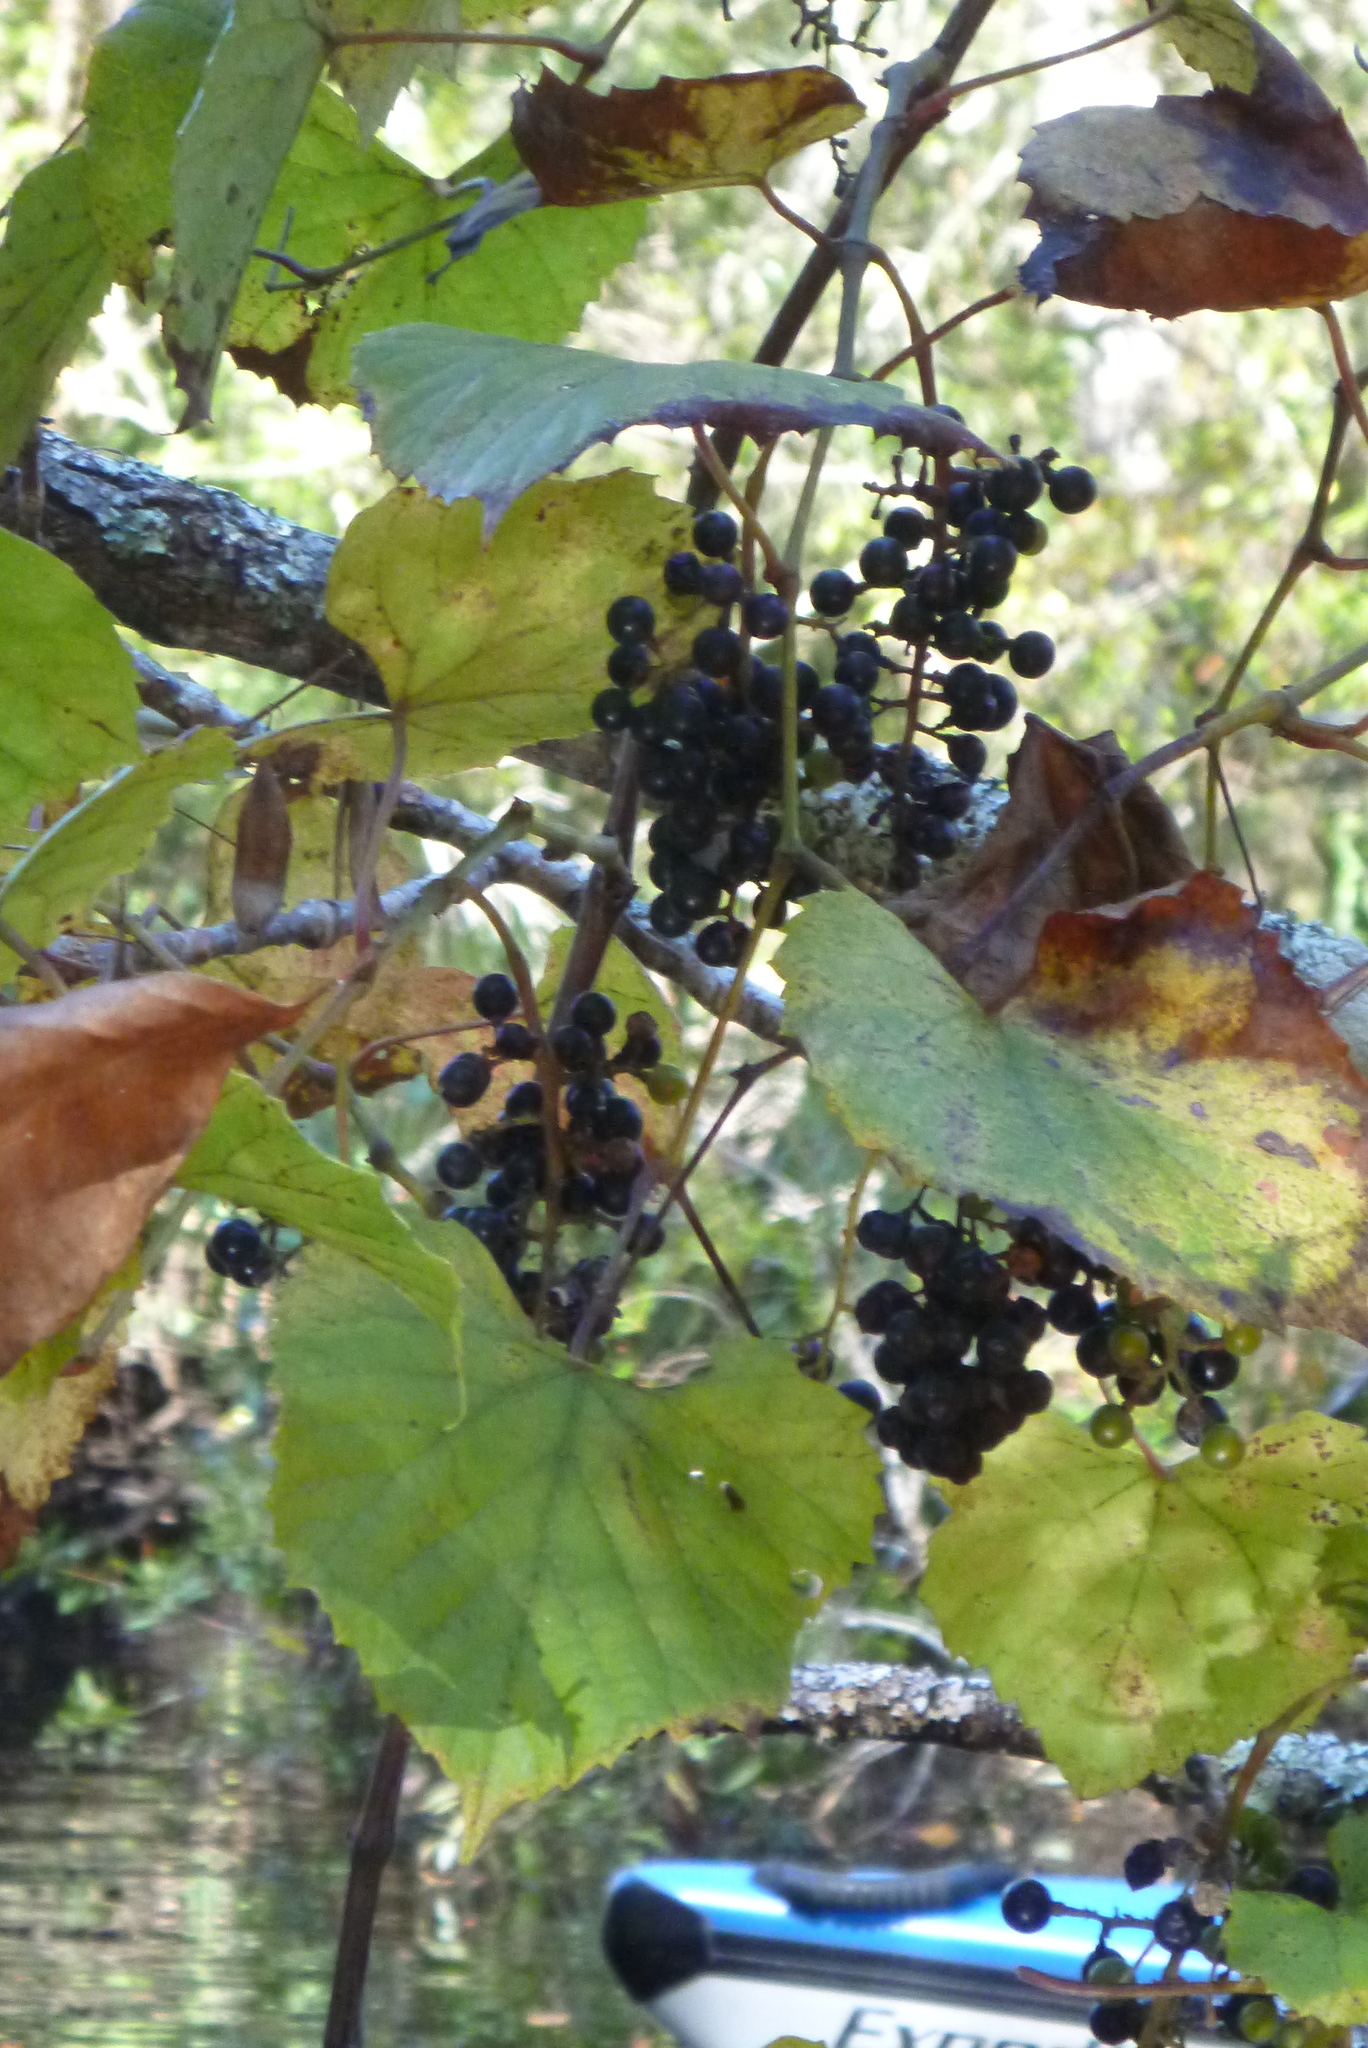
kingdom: Plantae
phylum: Tracheophyta
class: Magnoliopsida
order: Vitales
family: Vitaceae
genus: Vitis
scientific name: Vitis rotundifolia
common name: Muscadine grape
